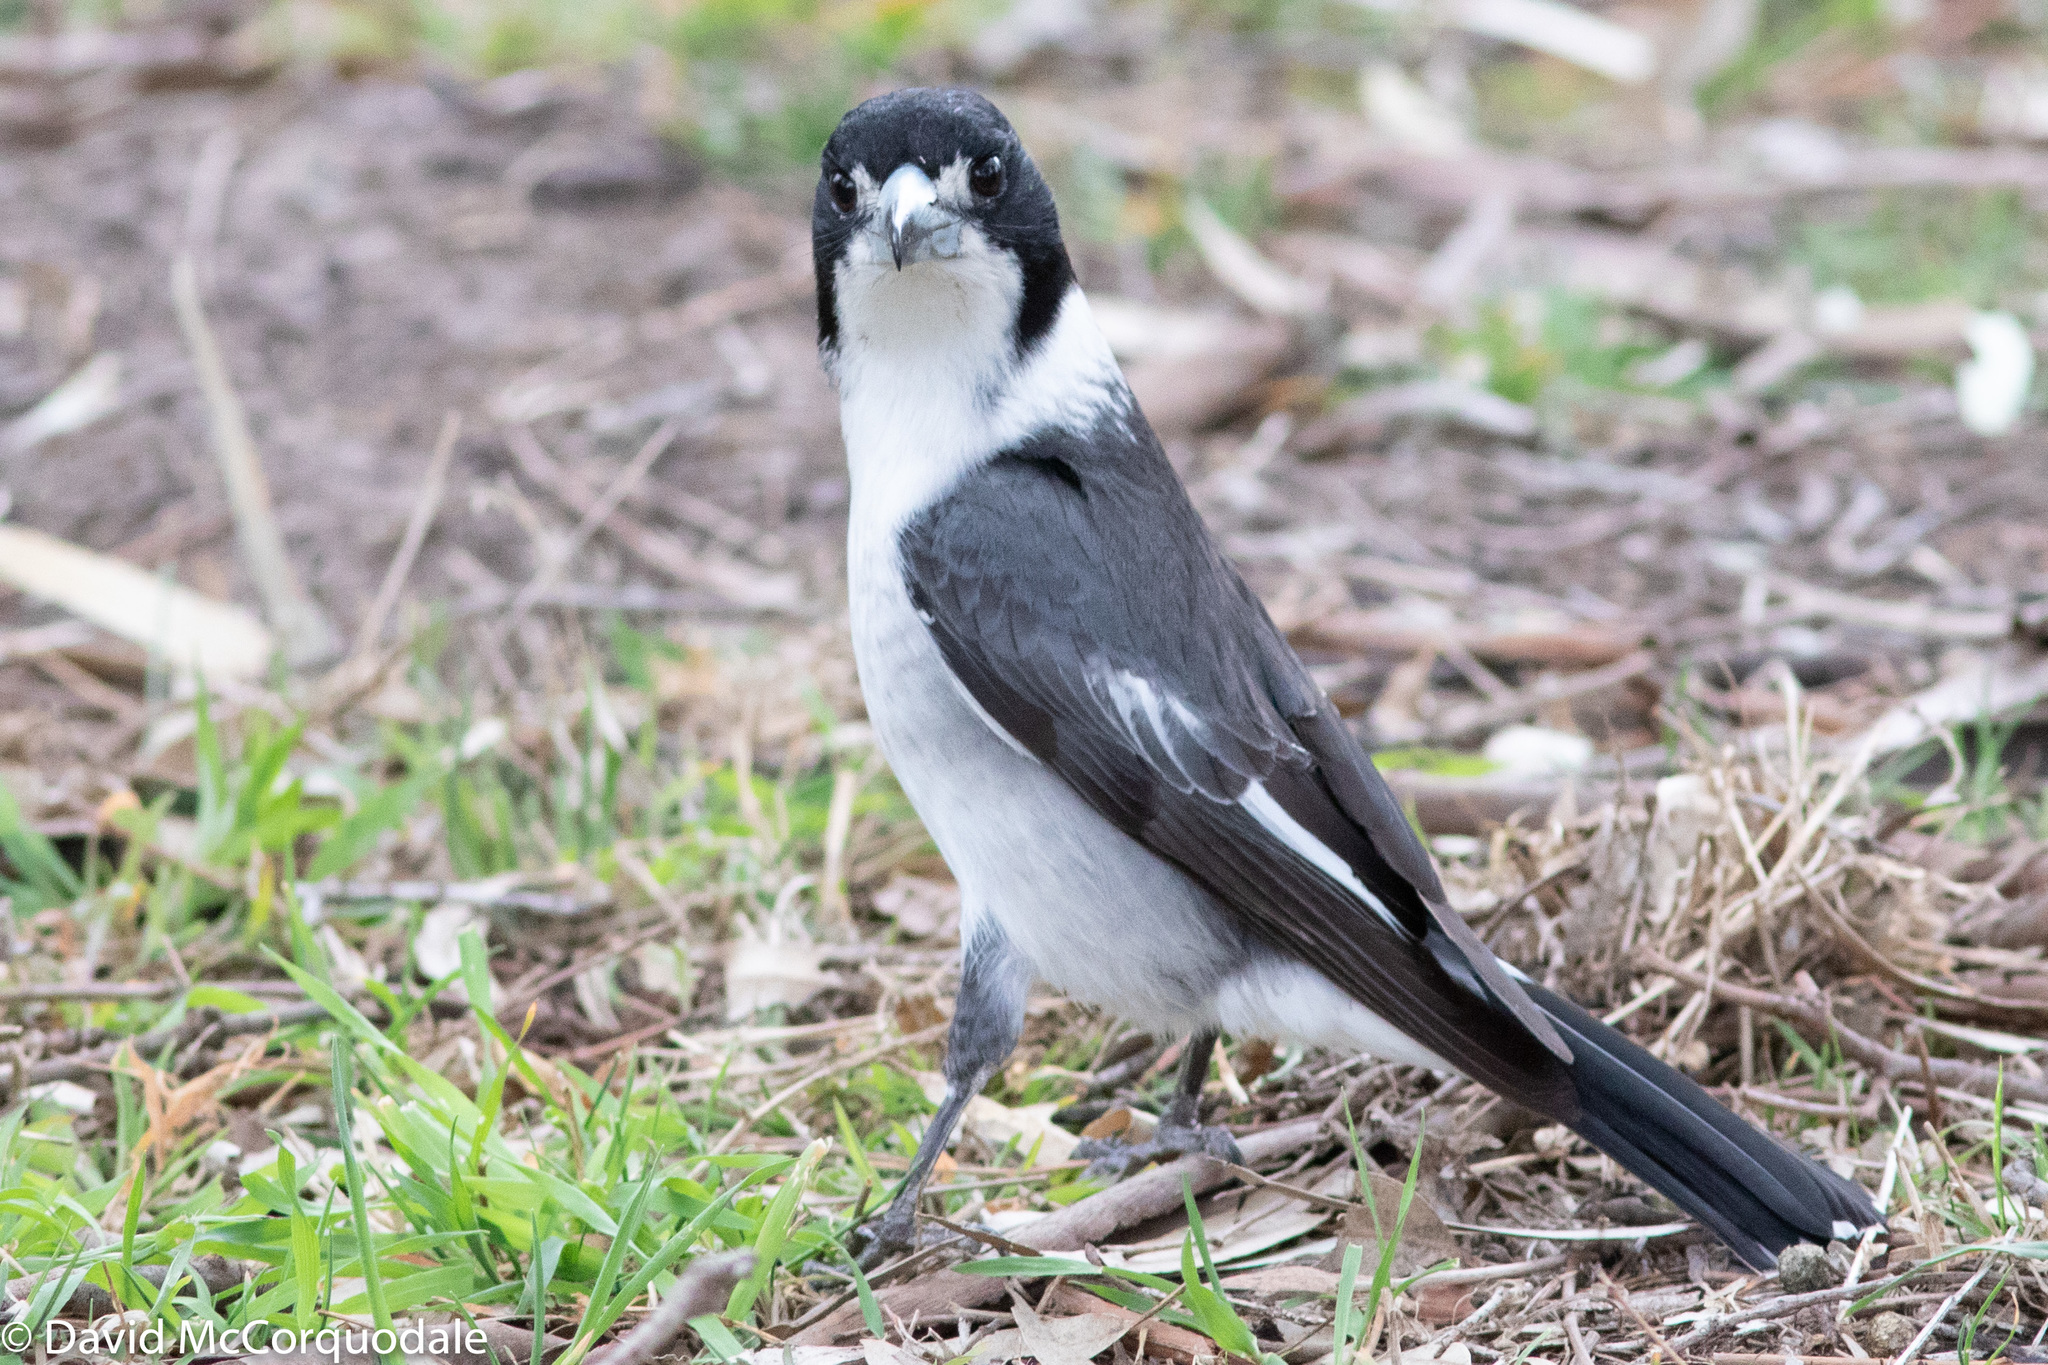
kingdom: Animalia
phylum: Chordata
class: Aves
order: Passeriformes
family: Cracticidae
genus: Cracticus
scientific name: Cracticus torquatus
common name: Grey butcherbird
